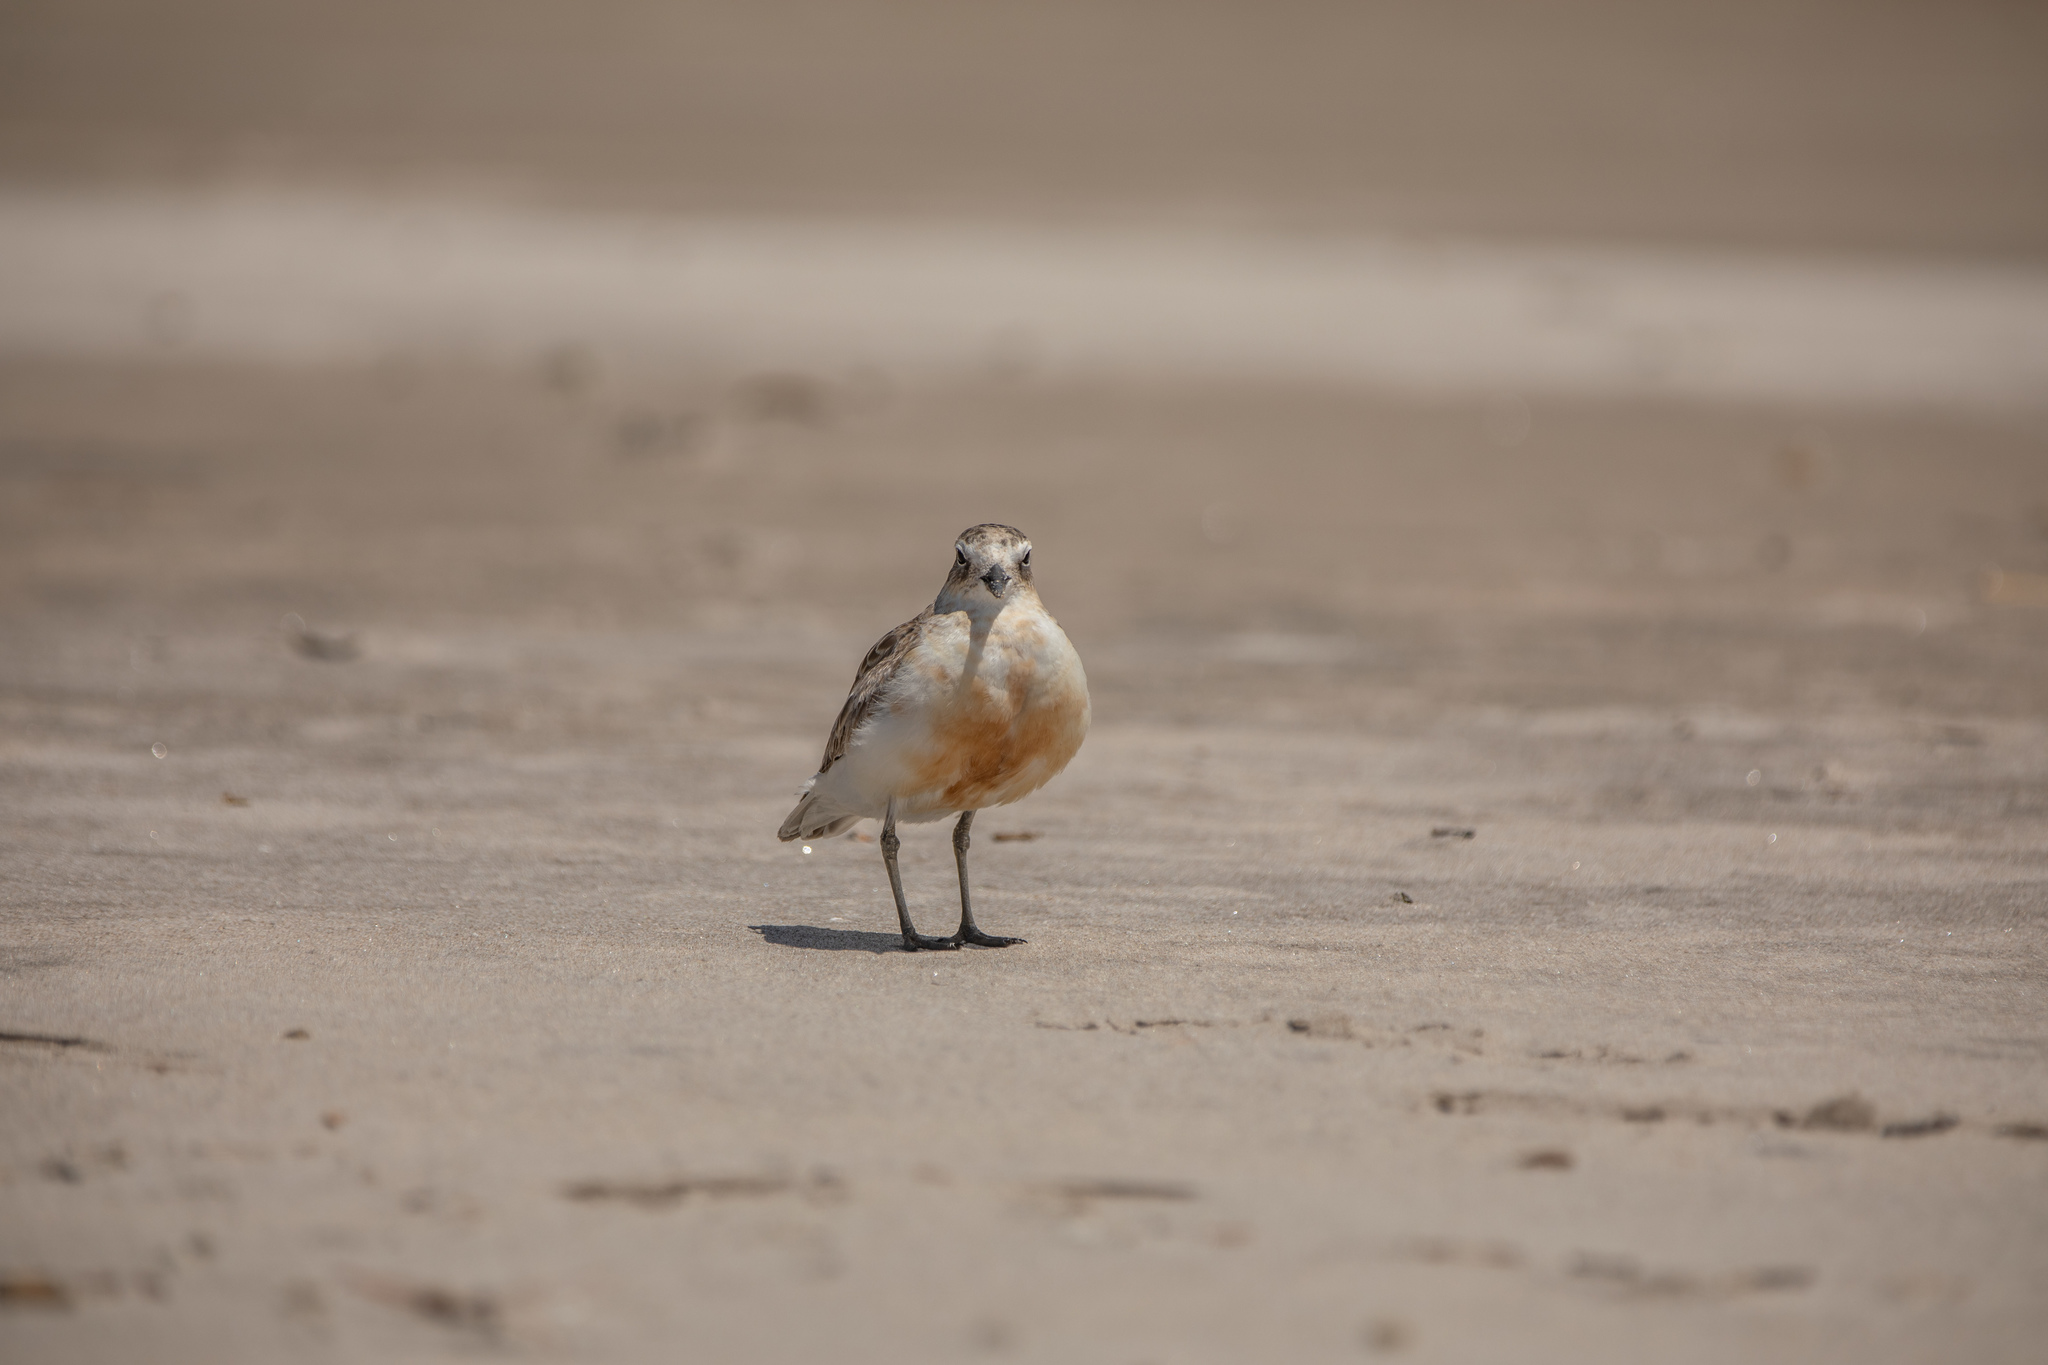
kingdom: Animalia
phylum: Chordata
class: Aves
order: Charadriiformes
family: Charadriidae
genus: Anarhynchus
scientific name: Anarhynchus
